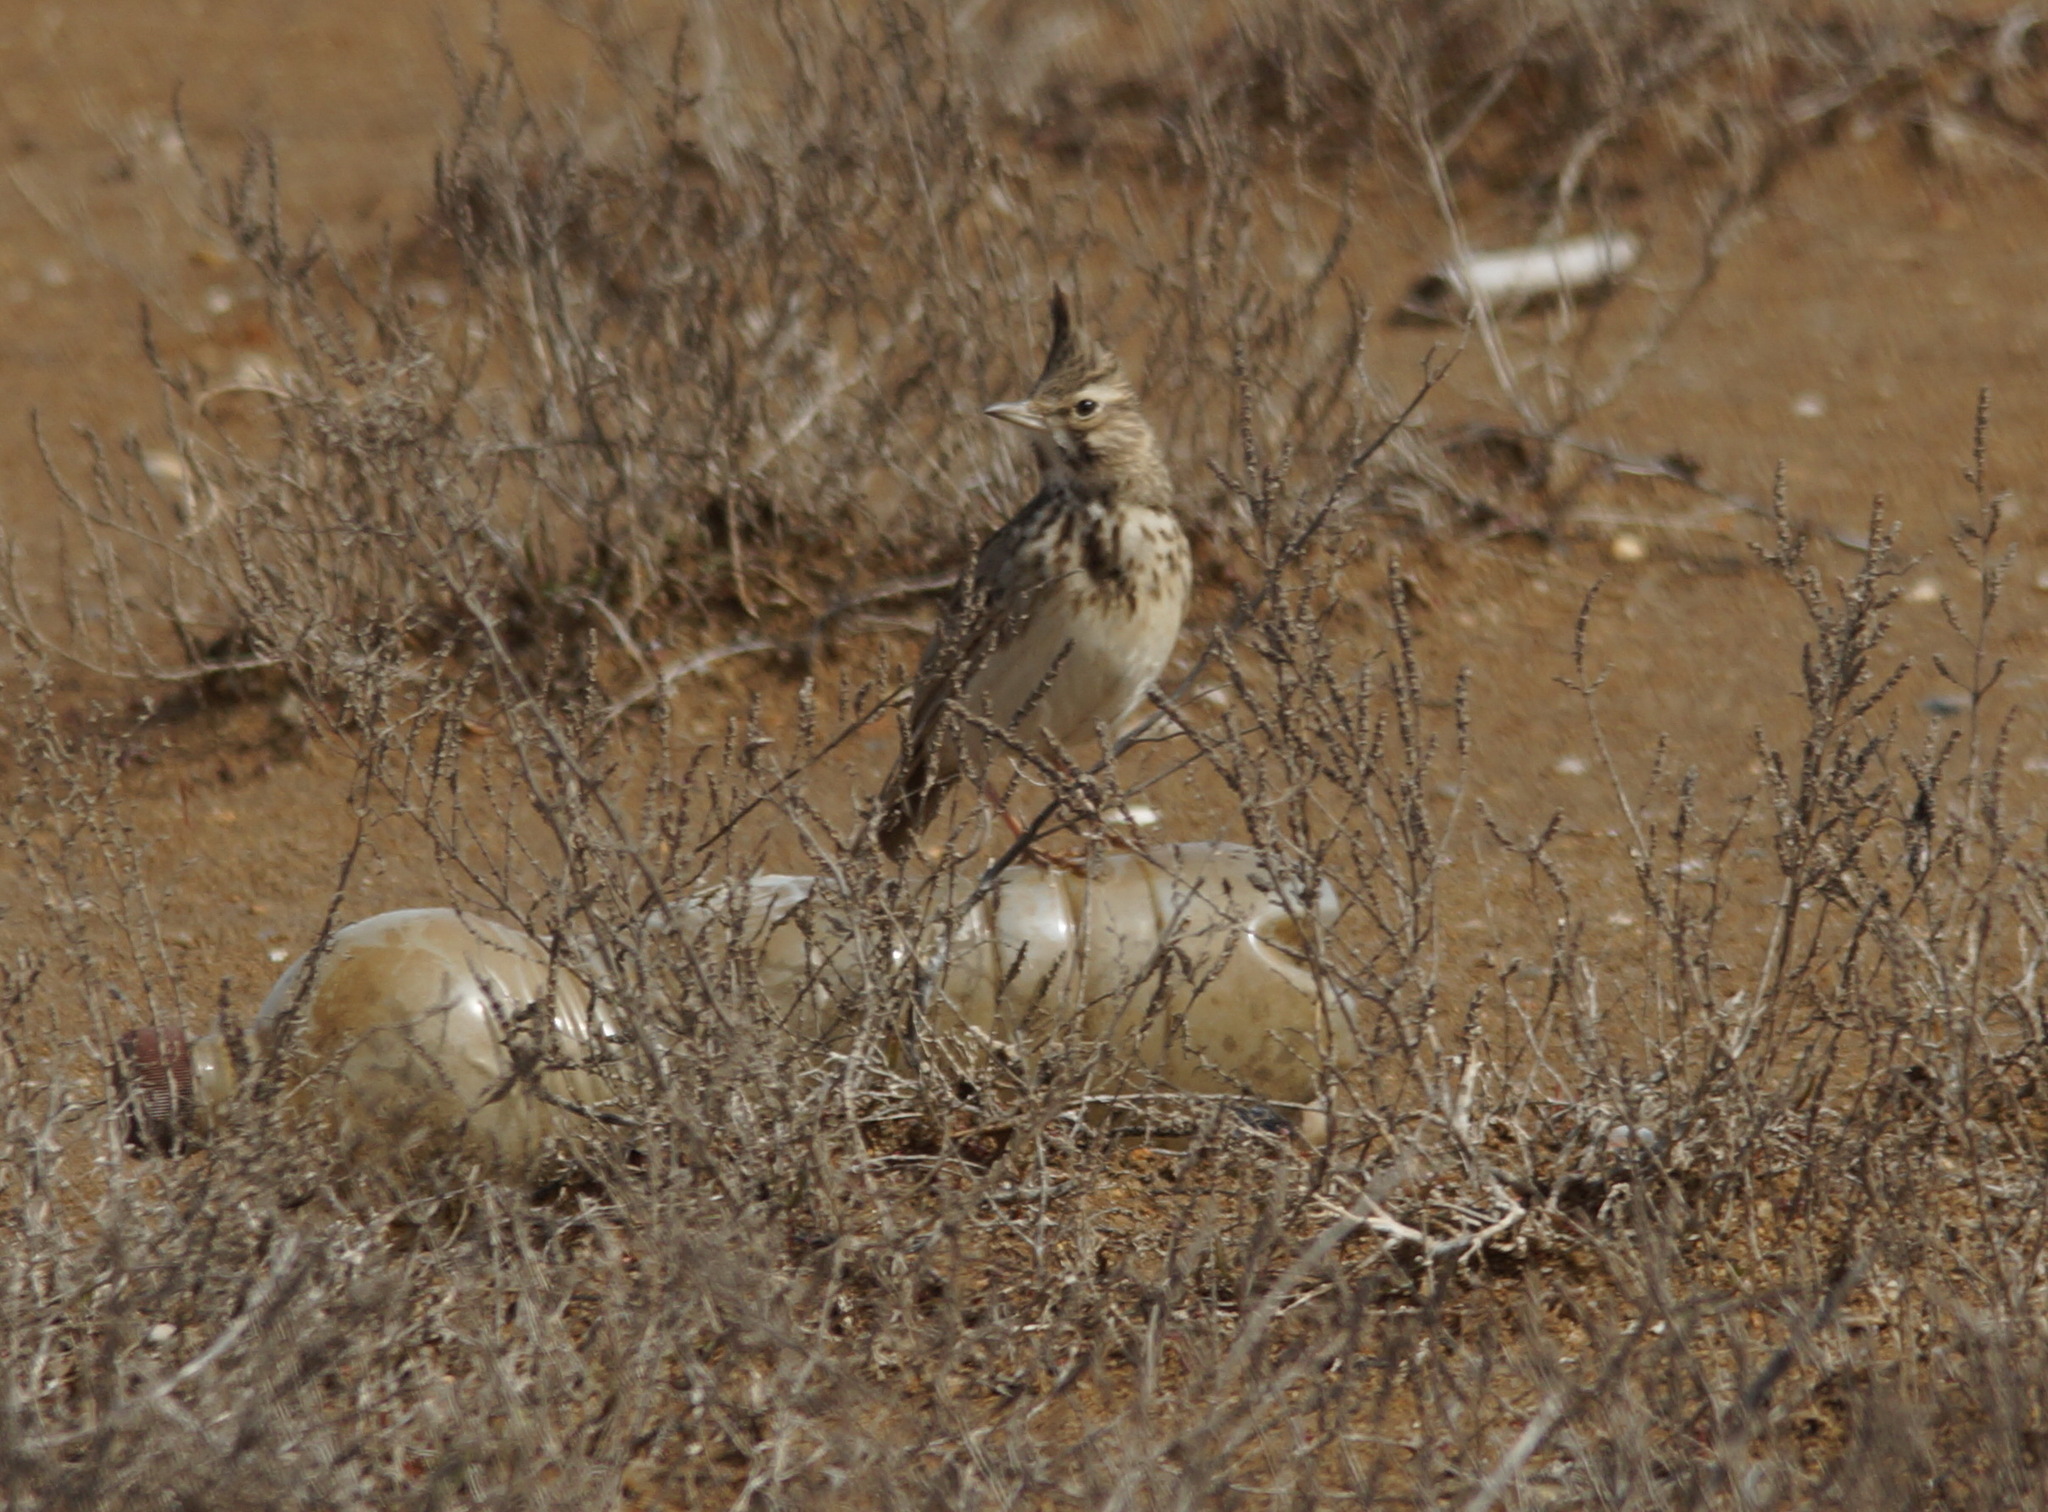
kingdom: Animalia
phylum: Chordata
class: Aves
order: Passeriformes
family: Alaudidae
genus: Galerida
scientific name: Galerida cristata
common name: Crested lark
